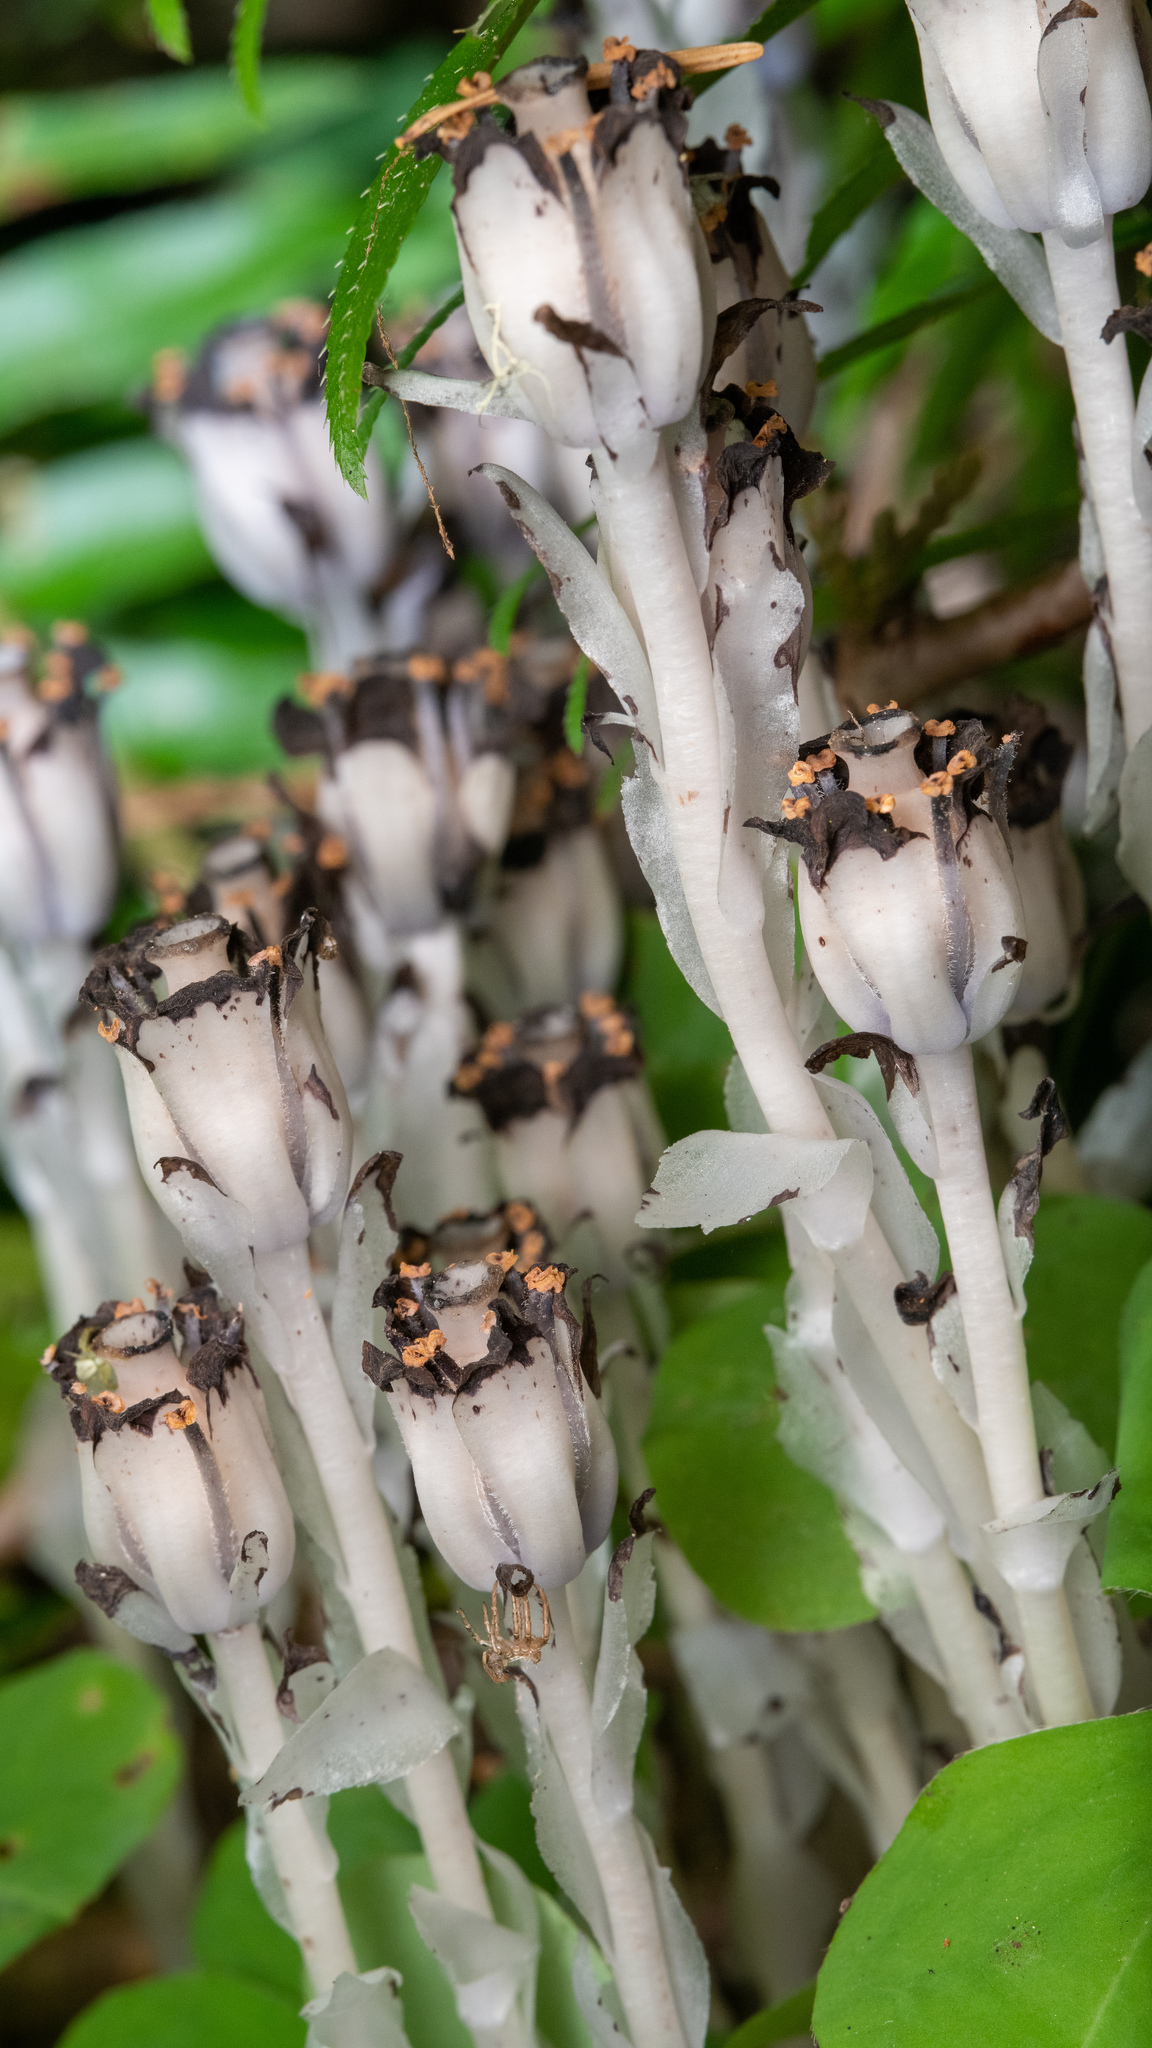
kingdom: Plantae
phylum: Tracheophyta
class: Magnoliopsida
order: Ericales
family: Ericaceae
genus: Monotropa
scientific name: Monotropa uniflora
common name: Convulsion root
